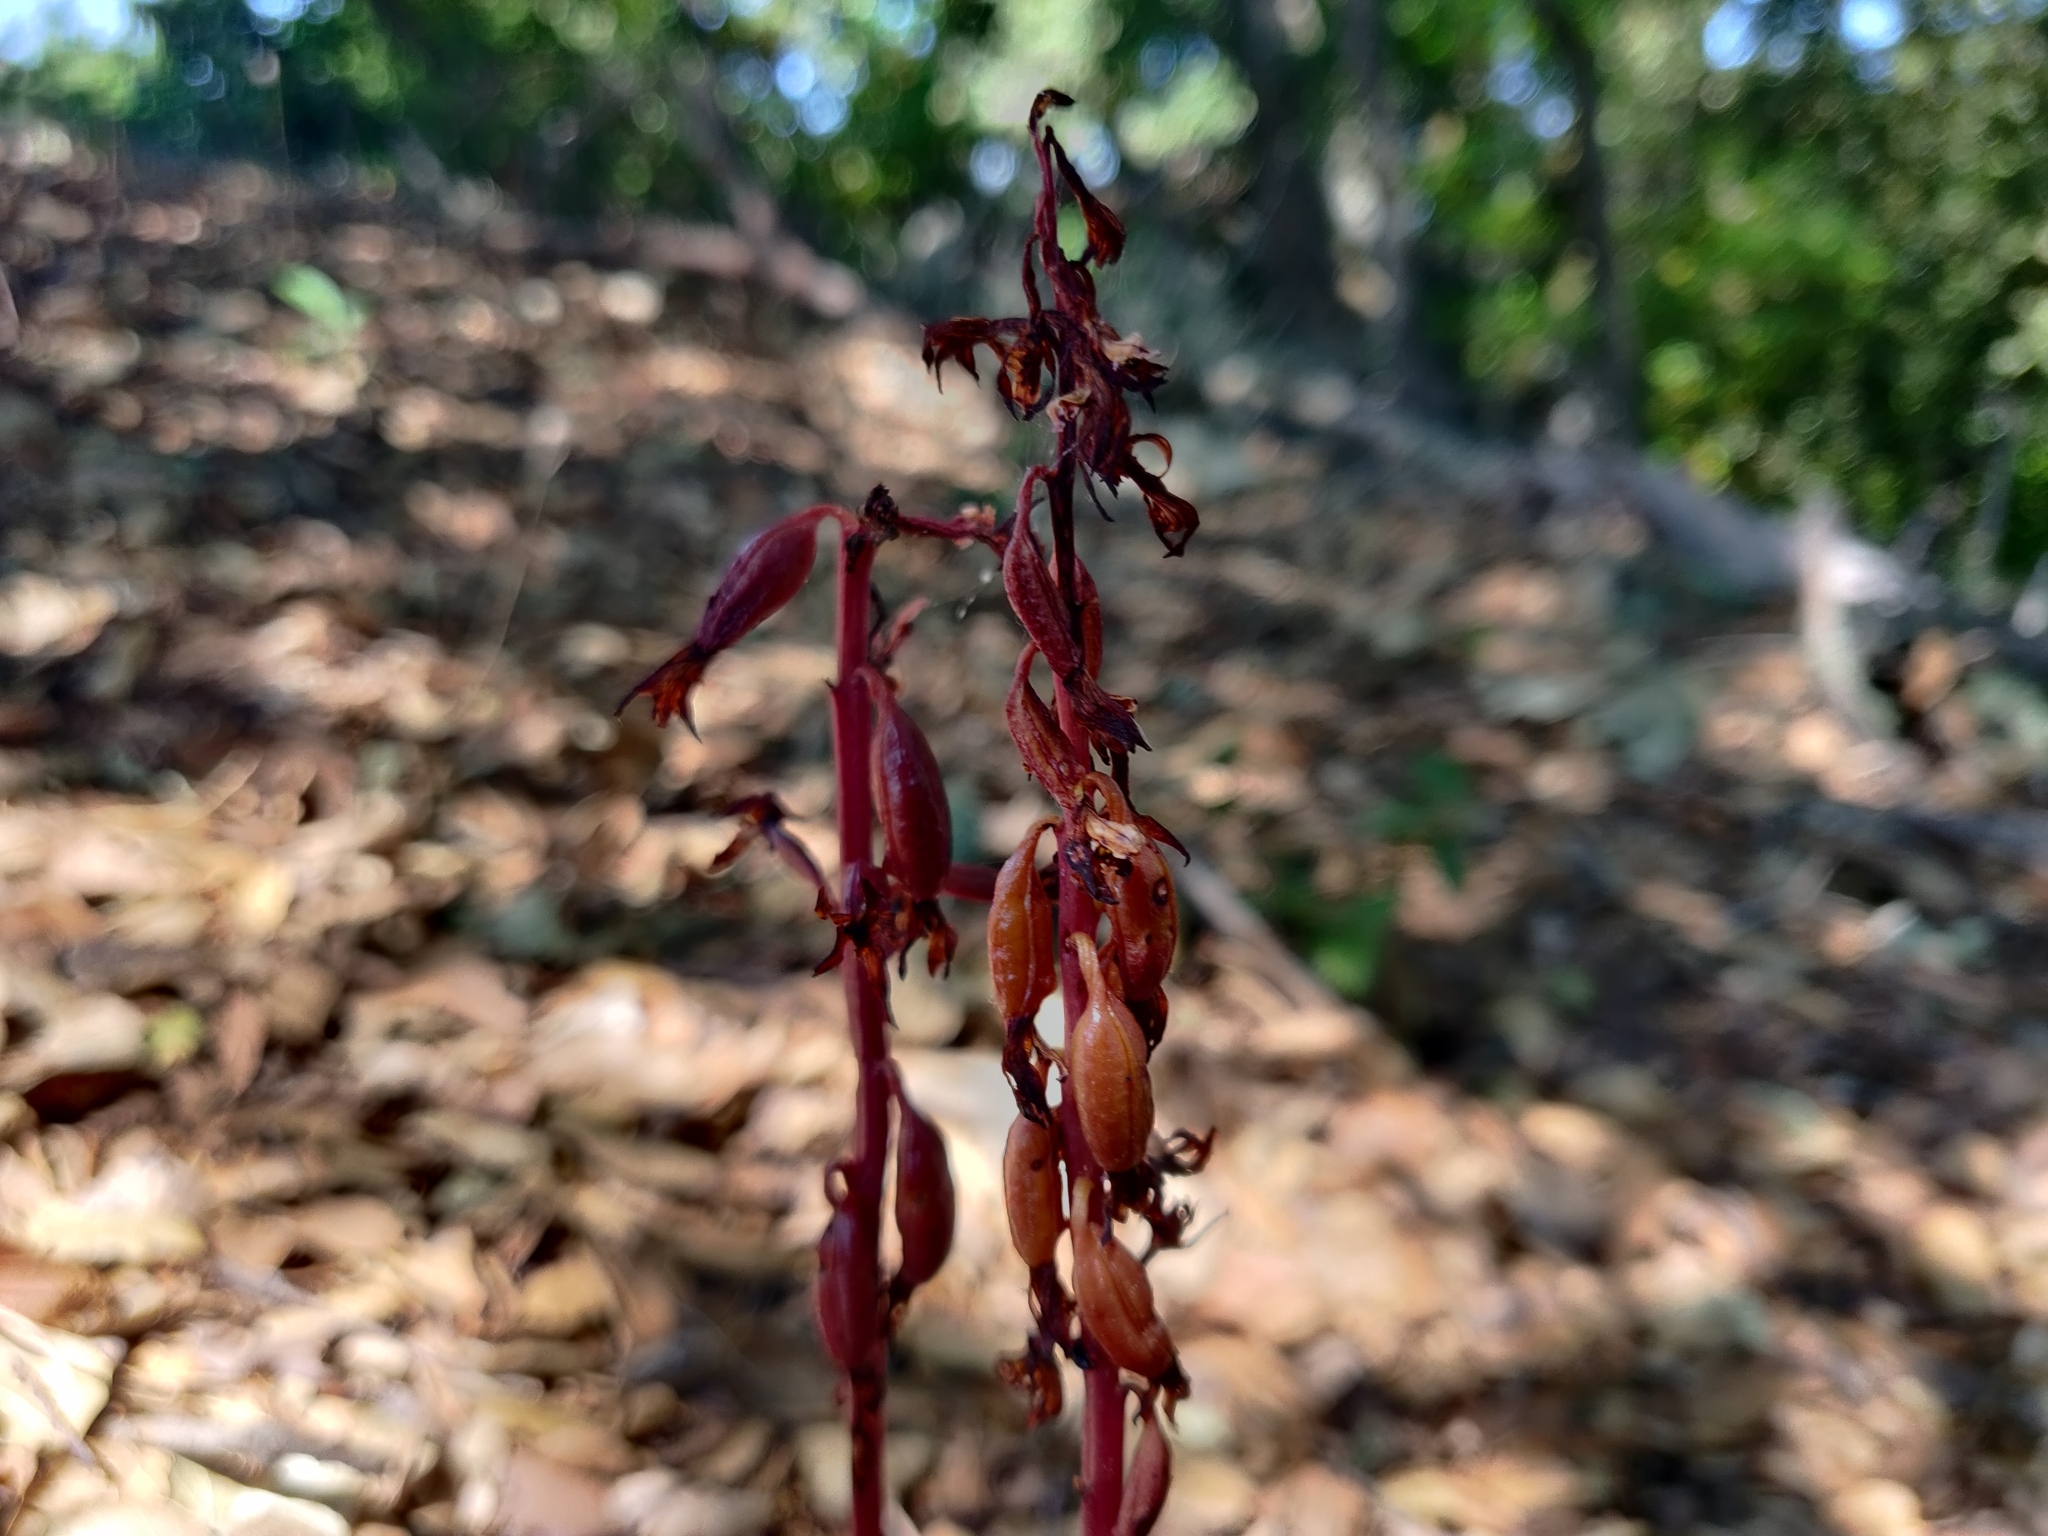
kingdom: Plantae
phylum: Tracheophyta
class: Liliopsida
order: Asparagales
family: Orchidaceae
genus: Corallorhiza
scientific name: Corallorhiza maculata
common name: Spotted coralroot
